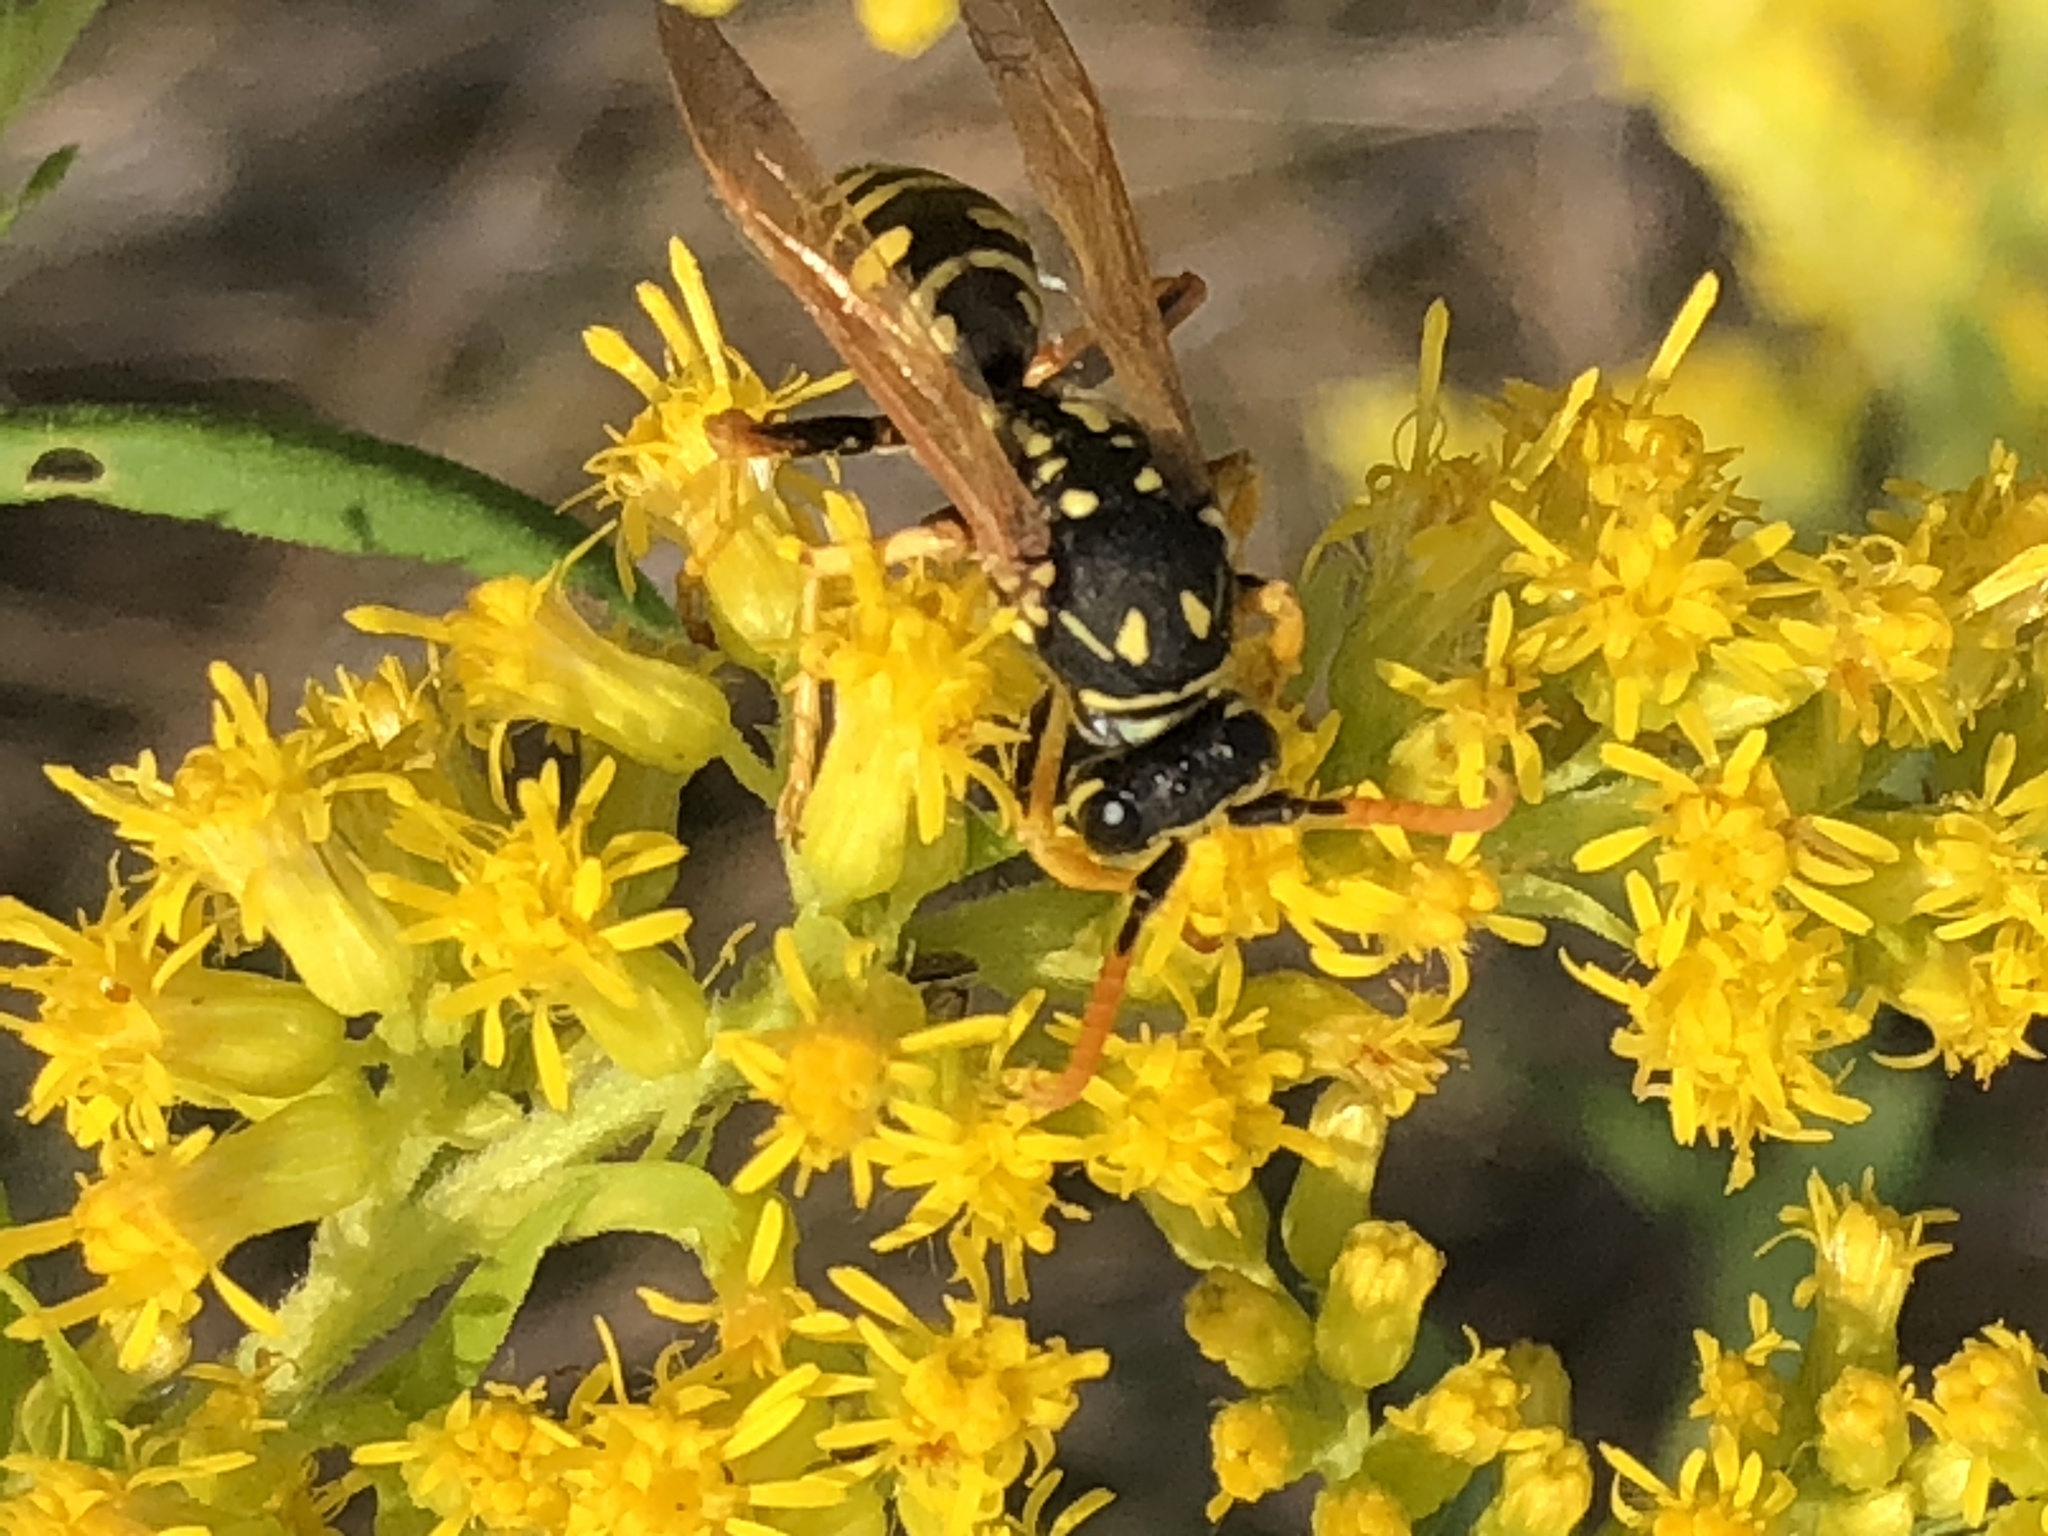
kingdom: Animalia
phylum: Arthropoda
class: Insecta
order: Hymenoptera
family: Eumenidae
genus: Polistes
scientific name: Polistes dominula
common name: Paper wasp
